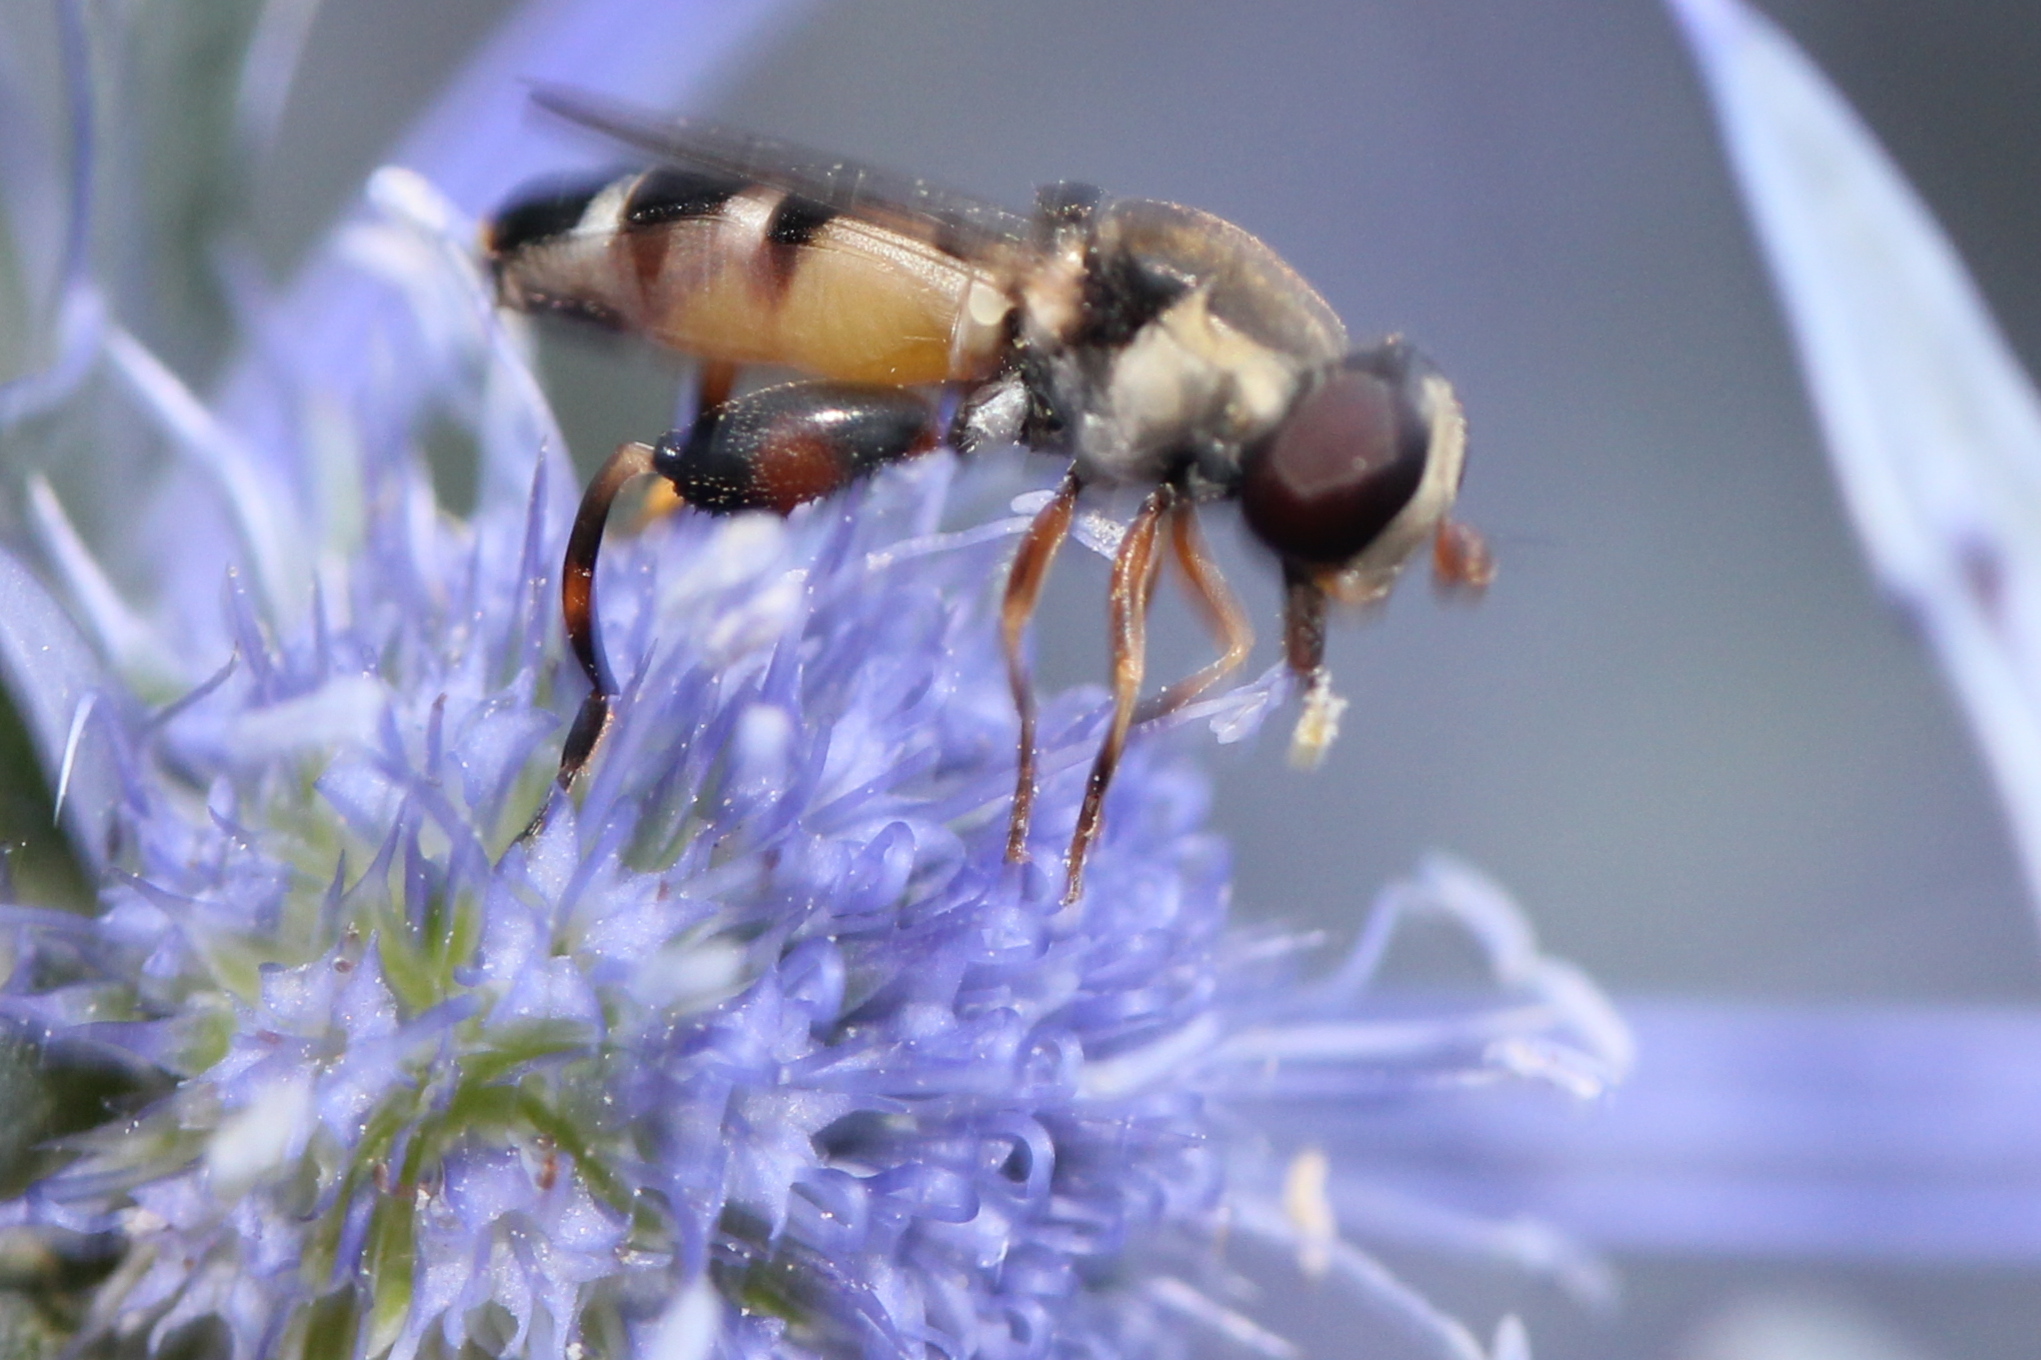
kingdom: Animalia
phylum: Arthropoda
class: Insecta
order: Diptera
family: Syrphidae
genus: Syritta
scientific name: Syritta pipiens
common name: Hover fly
